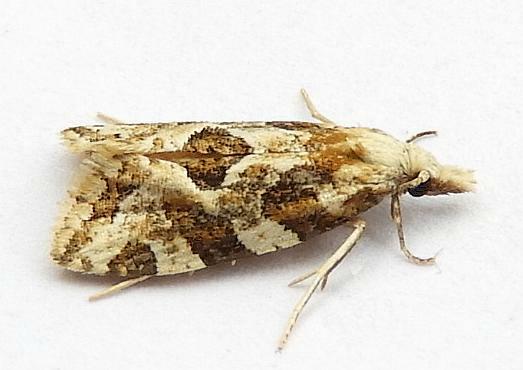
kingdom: Animalia
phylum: Arthropoda
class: Insecta
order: Lepidoptera
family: Tortricidae
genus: Aethes
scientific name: Aethes sexdentata
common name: Six-toothed aethes
